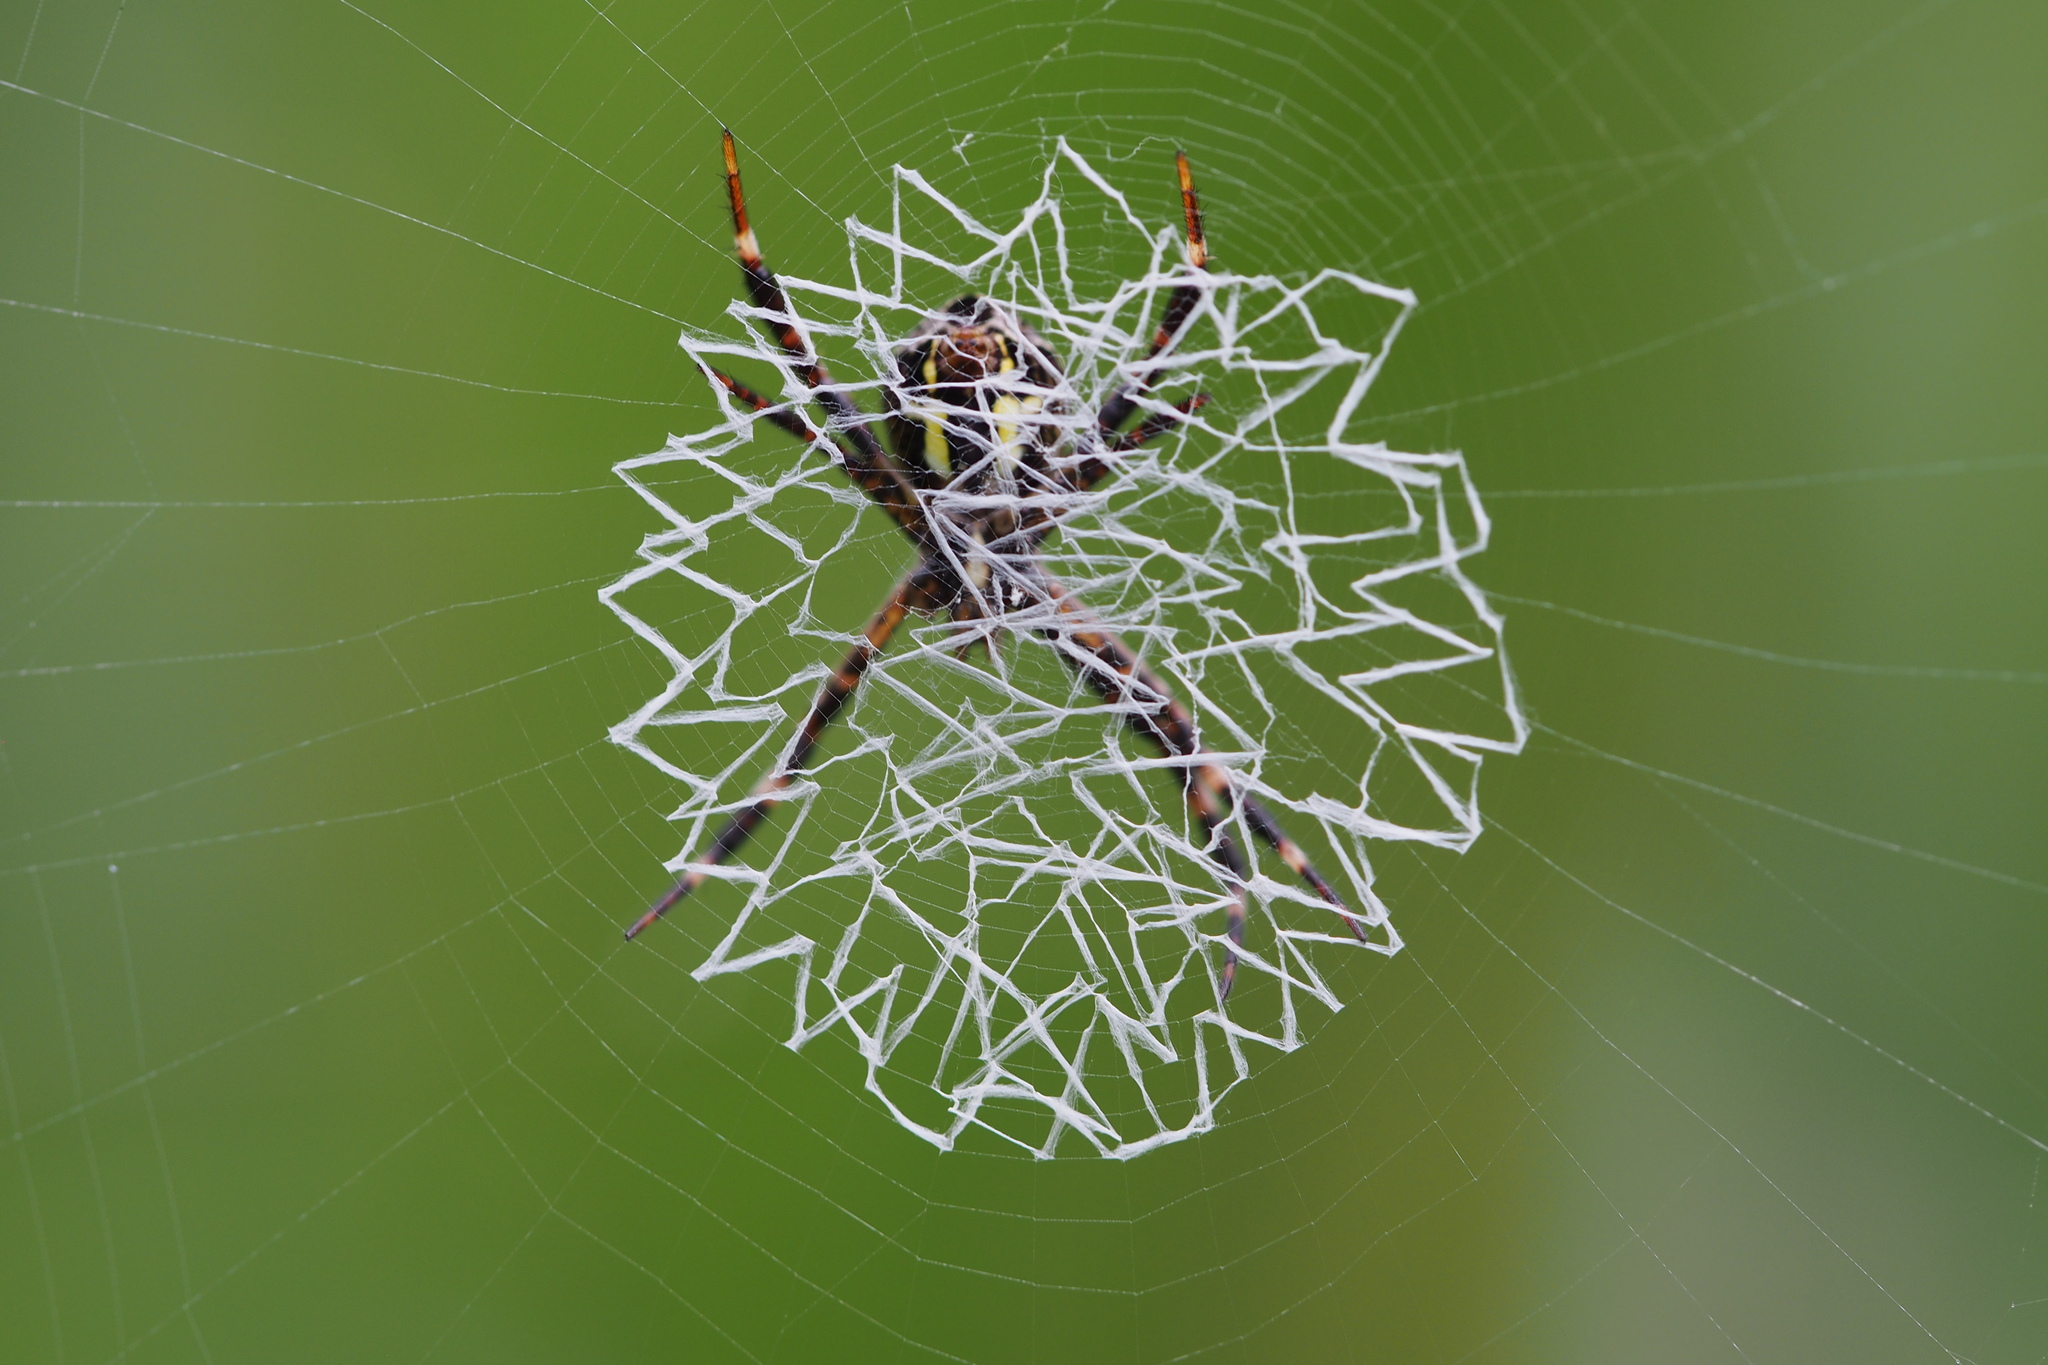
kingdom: Animalia
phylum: Arthropoda
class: Arachnida
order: Araneae
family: Araneidae
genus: Argiope
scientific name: Argiope amoena
